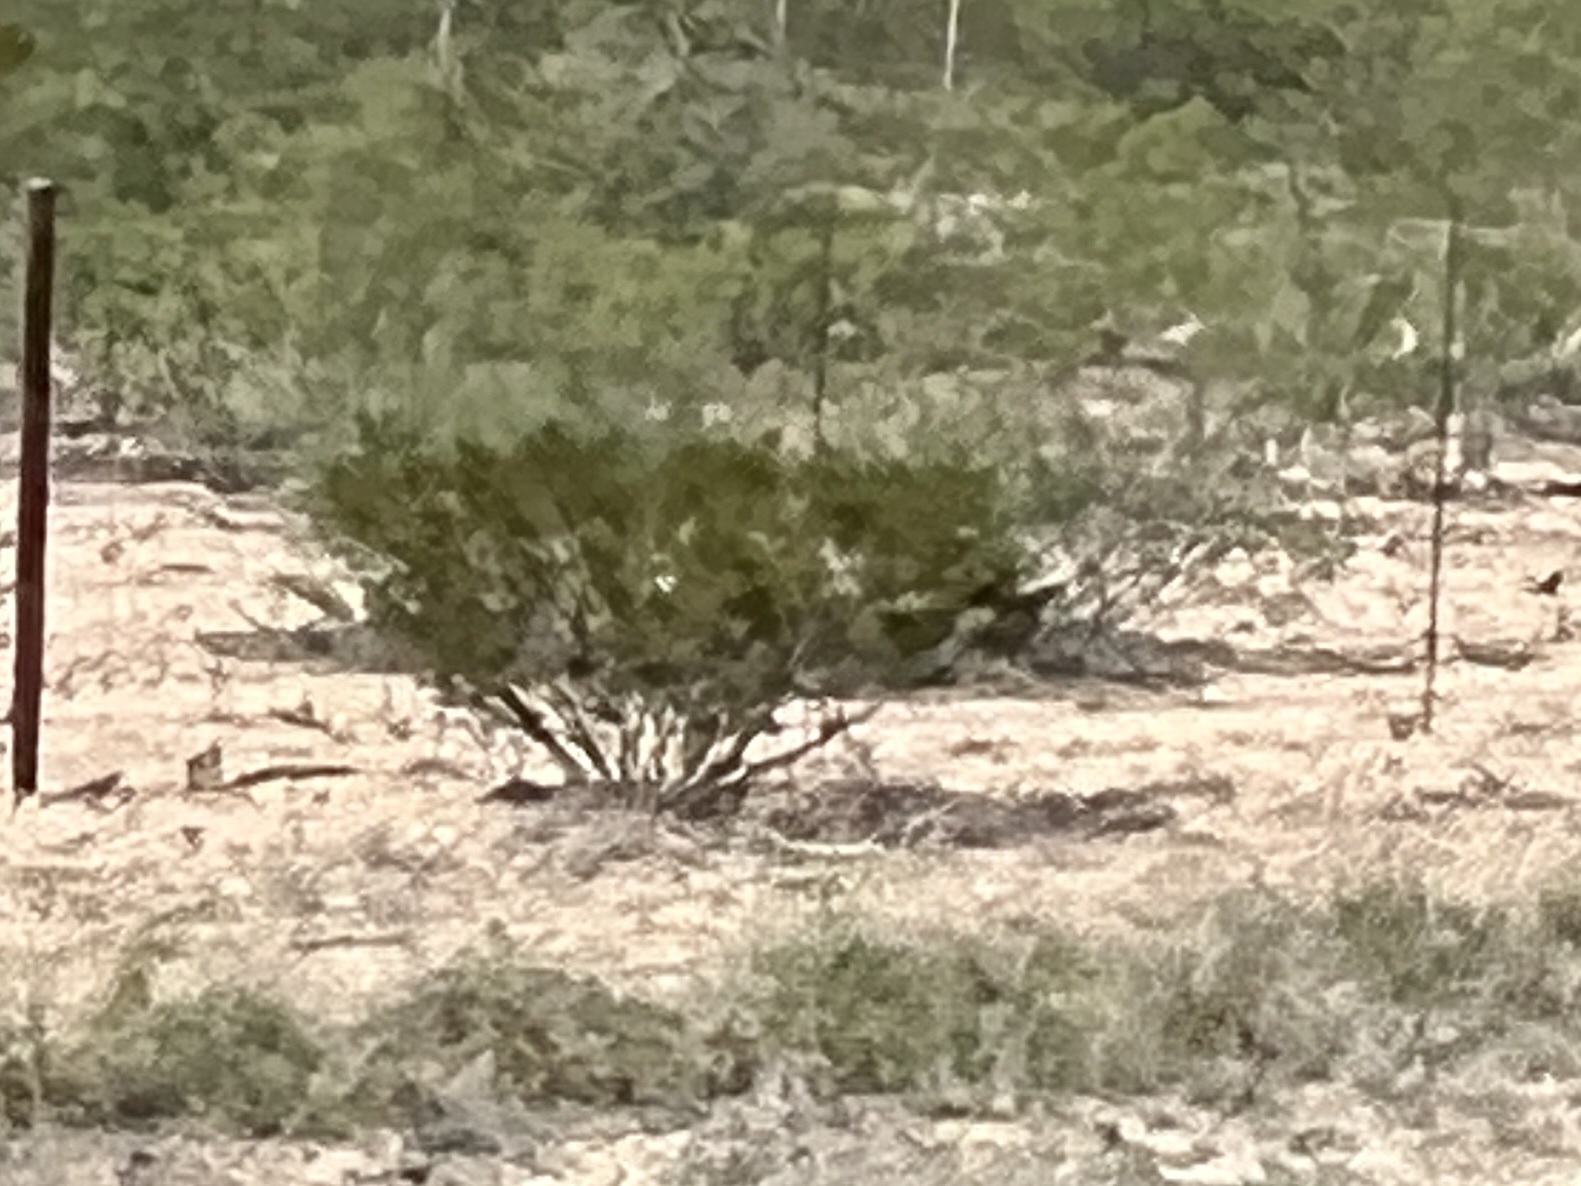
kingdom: Plantae
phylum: Tracheophyta
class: Magnoliopsida
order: Zygophyllales
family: Zygophyllaceae
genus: Larrea
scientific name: Larrea tridentata
